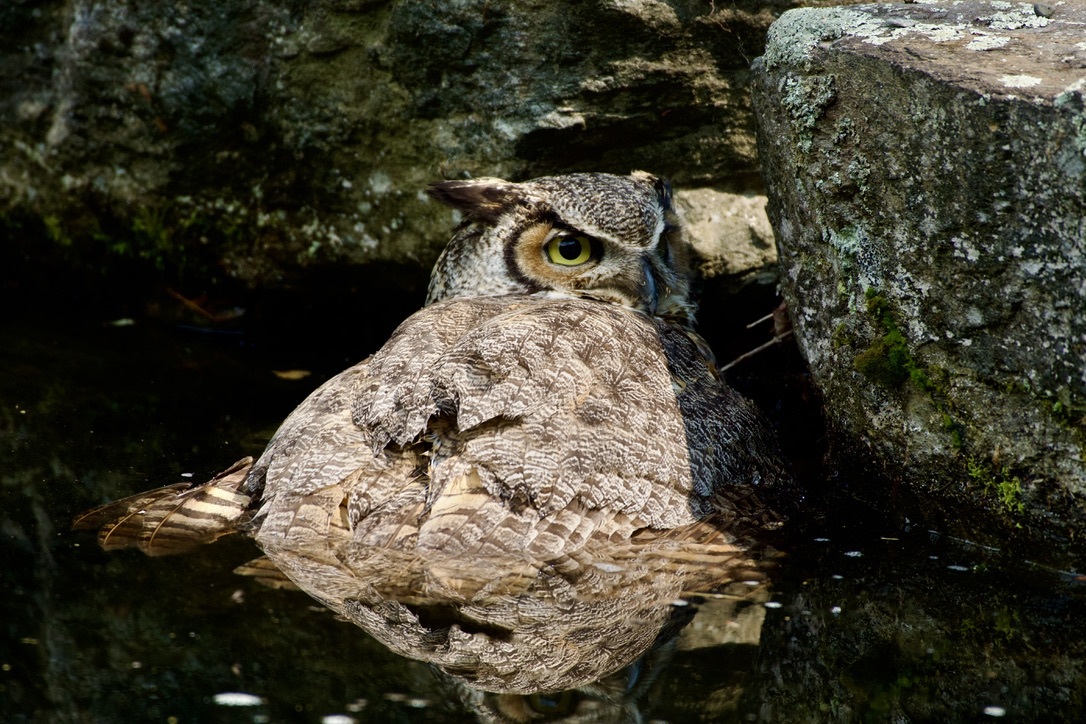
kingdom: Animalia
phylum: Chordata
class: Aves
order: Strigiformes
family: Strigidae
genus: Bubo
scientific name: Bubo virginianus
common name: Great horned owl
